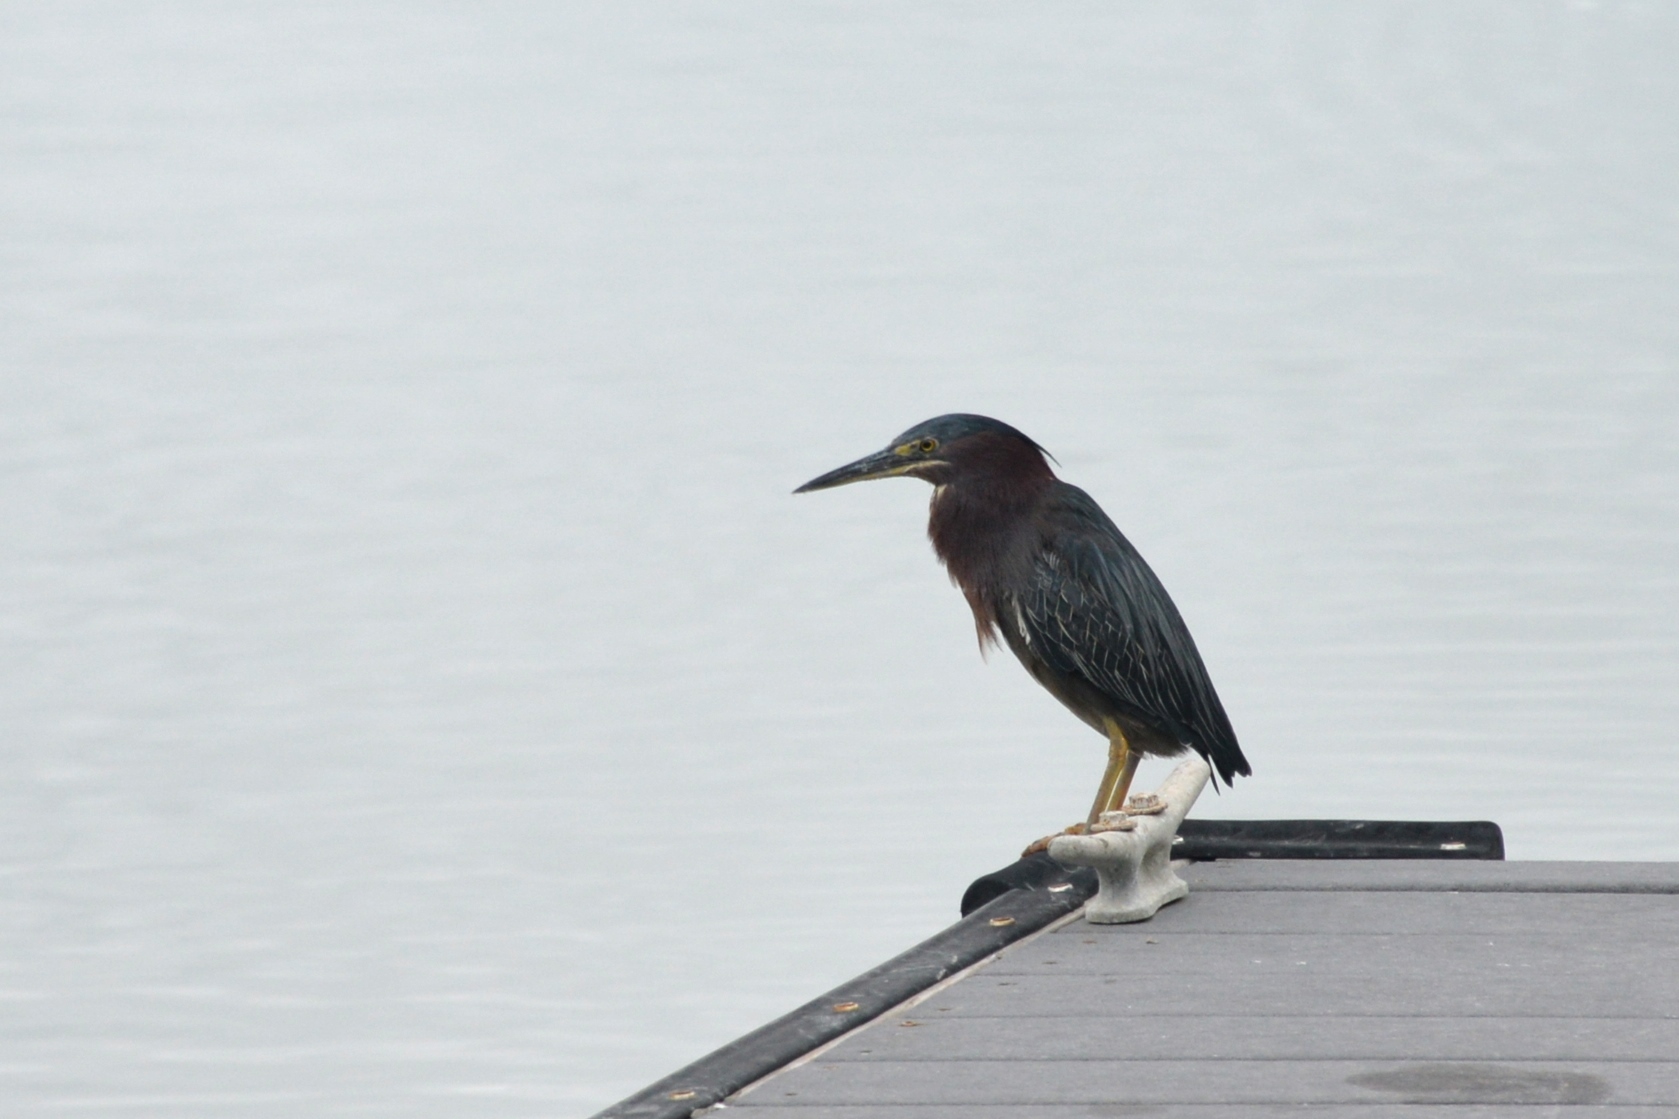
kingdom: Animalia
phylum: Chordata
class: Aves
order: Pelecaniformes
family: Ardeidae
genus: Butorides
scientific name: Butorides virescens
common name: Green heron
